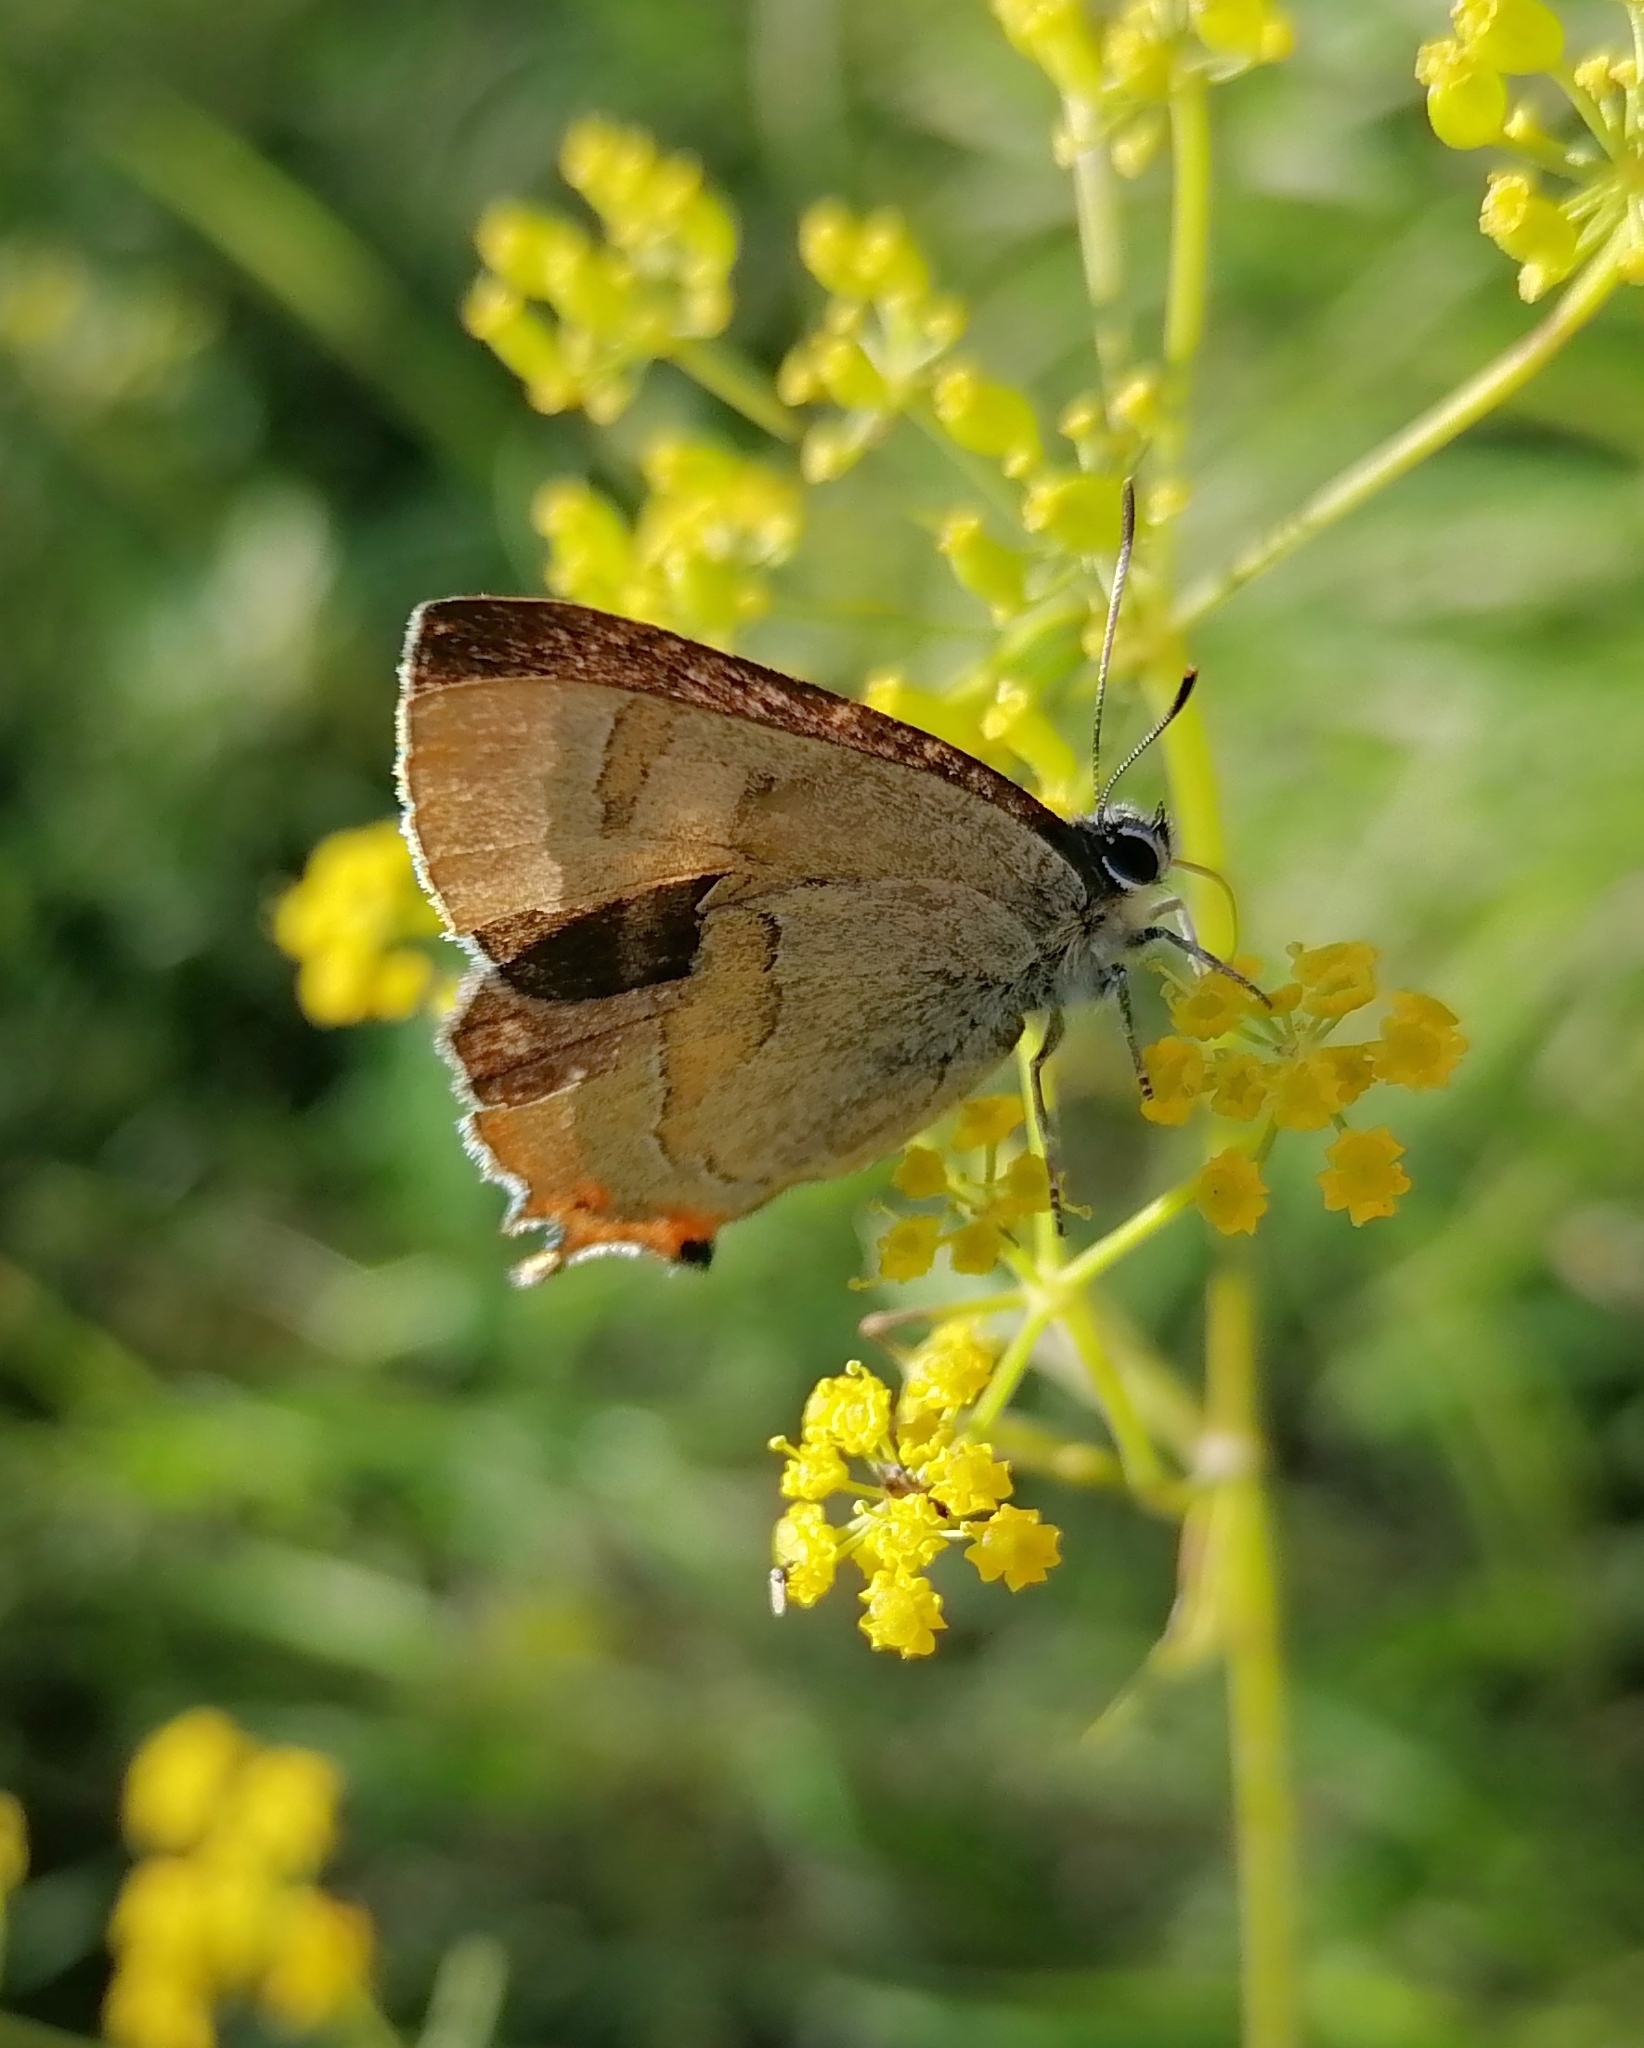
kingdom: Animalia
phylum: Arthropoda
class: Insecta
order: Lepidoptera
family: Lycaenidae
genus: Thecla
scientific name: Thecla betulae
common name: Brown hairstreak
